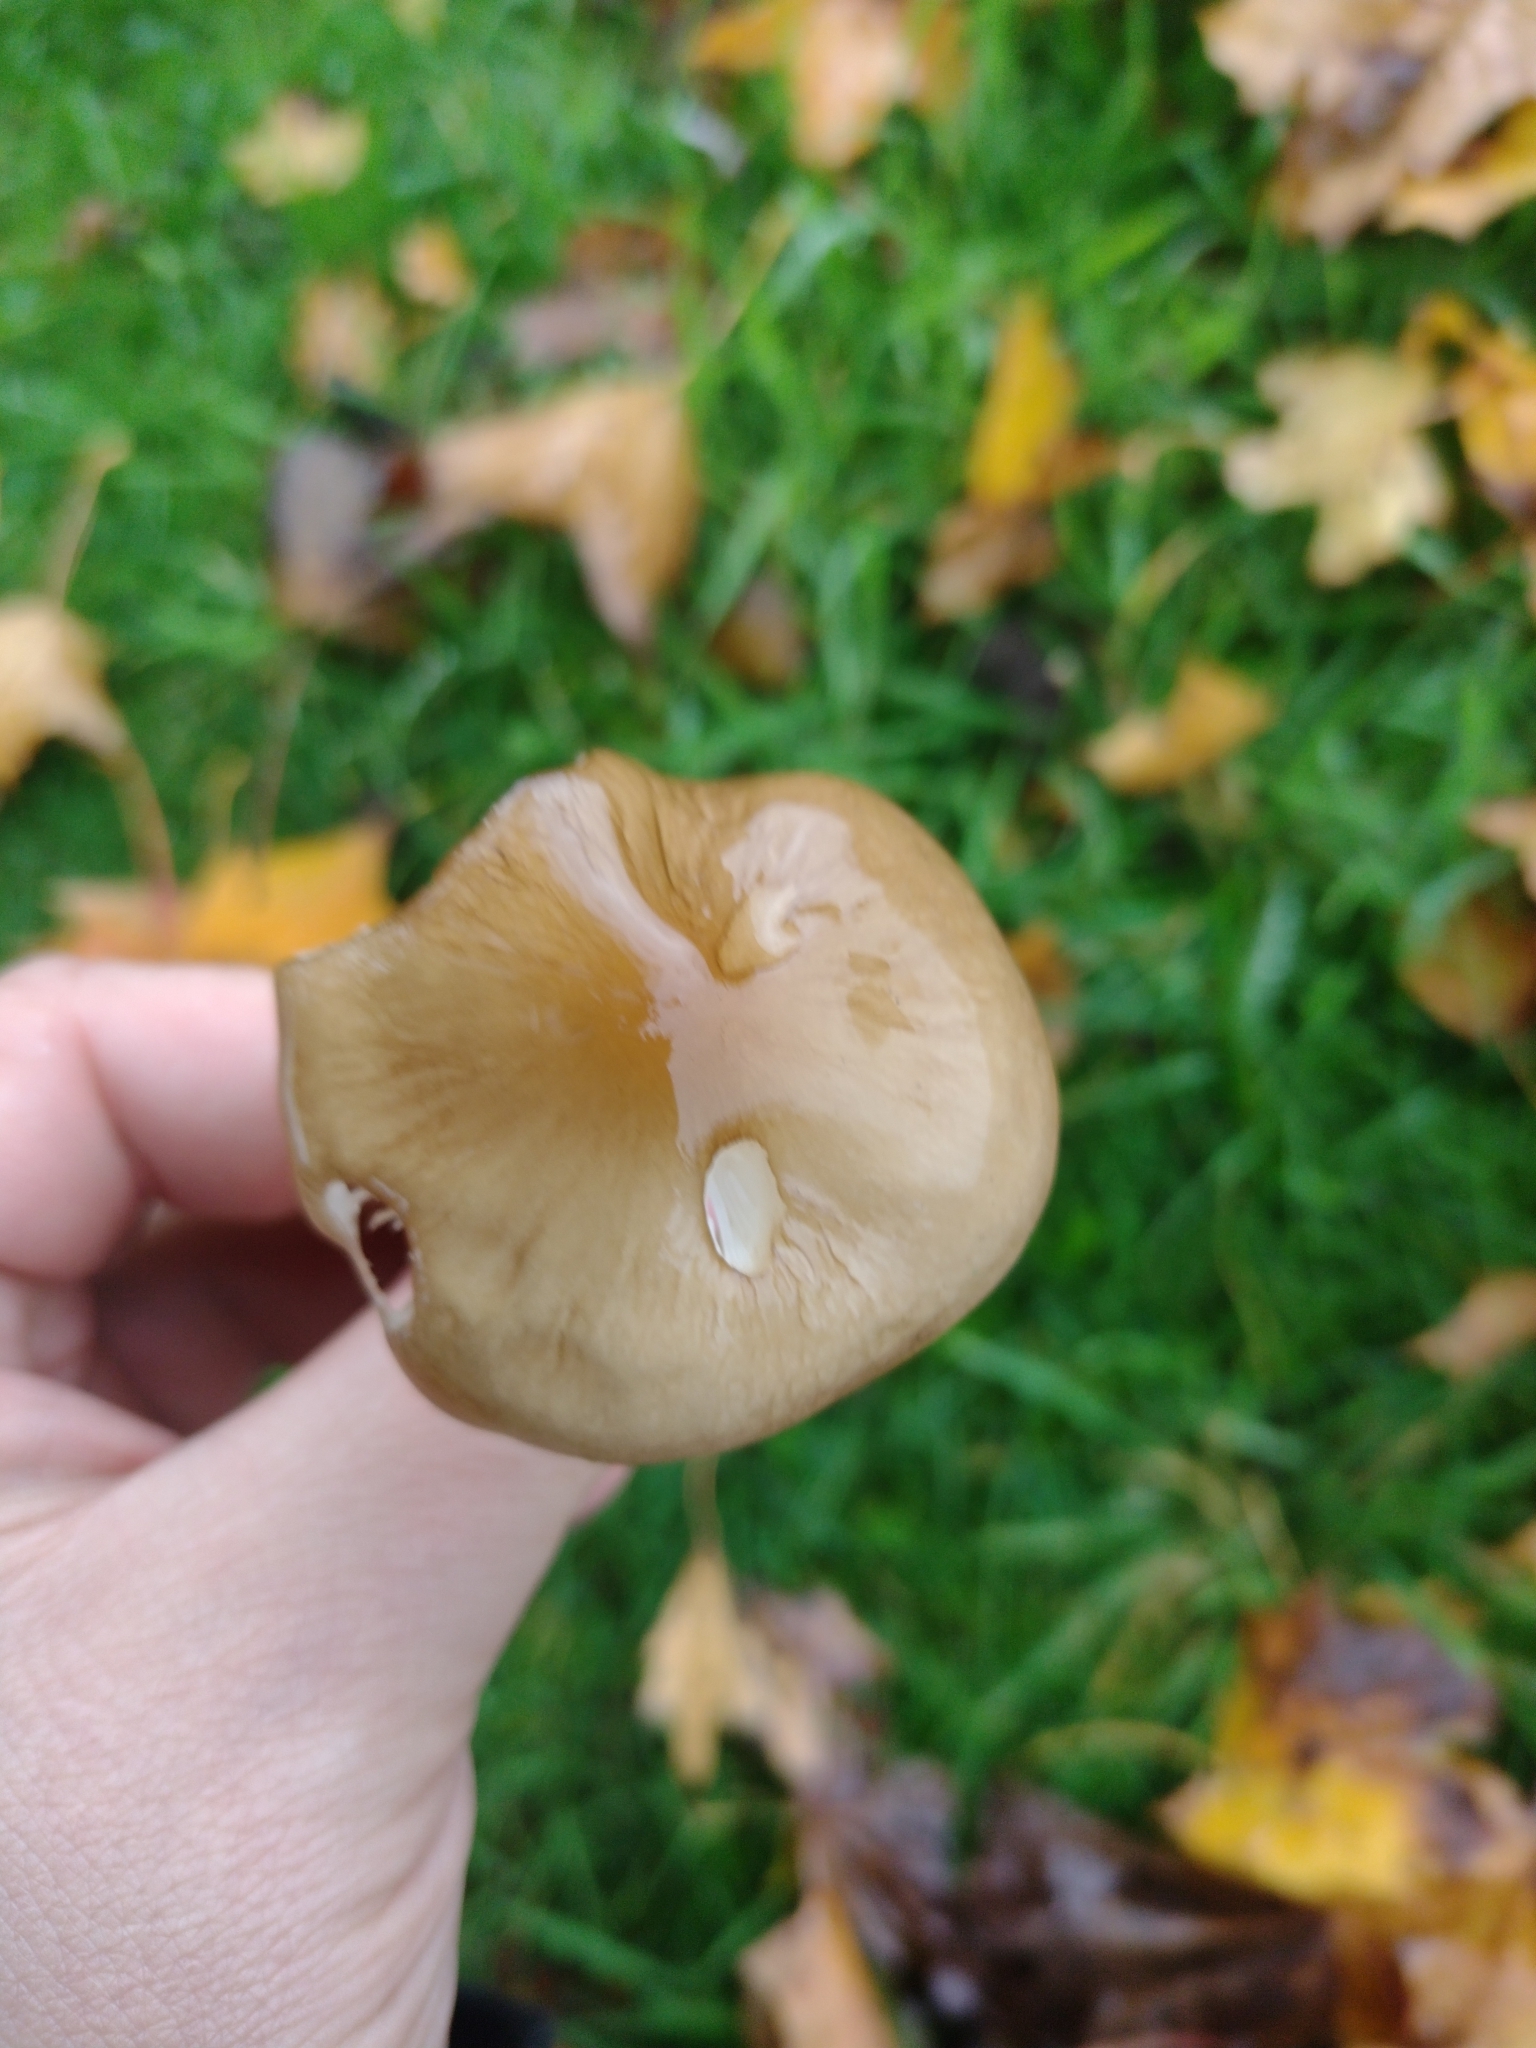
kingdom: Fungi
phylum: Basidiomycota
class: Agaricomycetes
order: Agaricales
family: Physalacriaceae
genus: Hymenopellis
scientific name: Hymenopellis radicata
